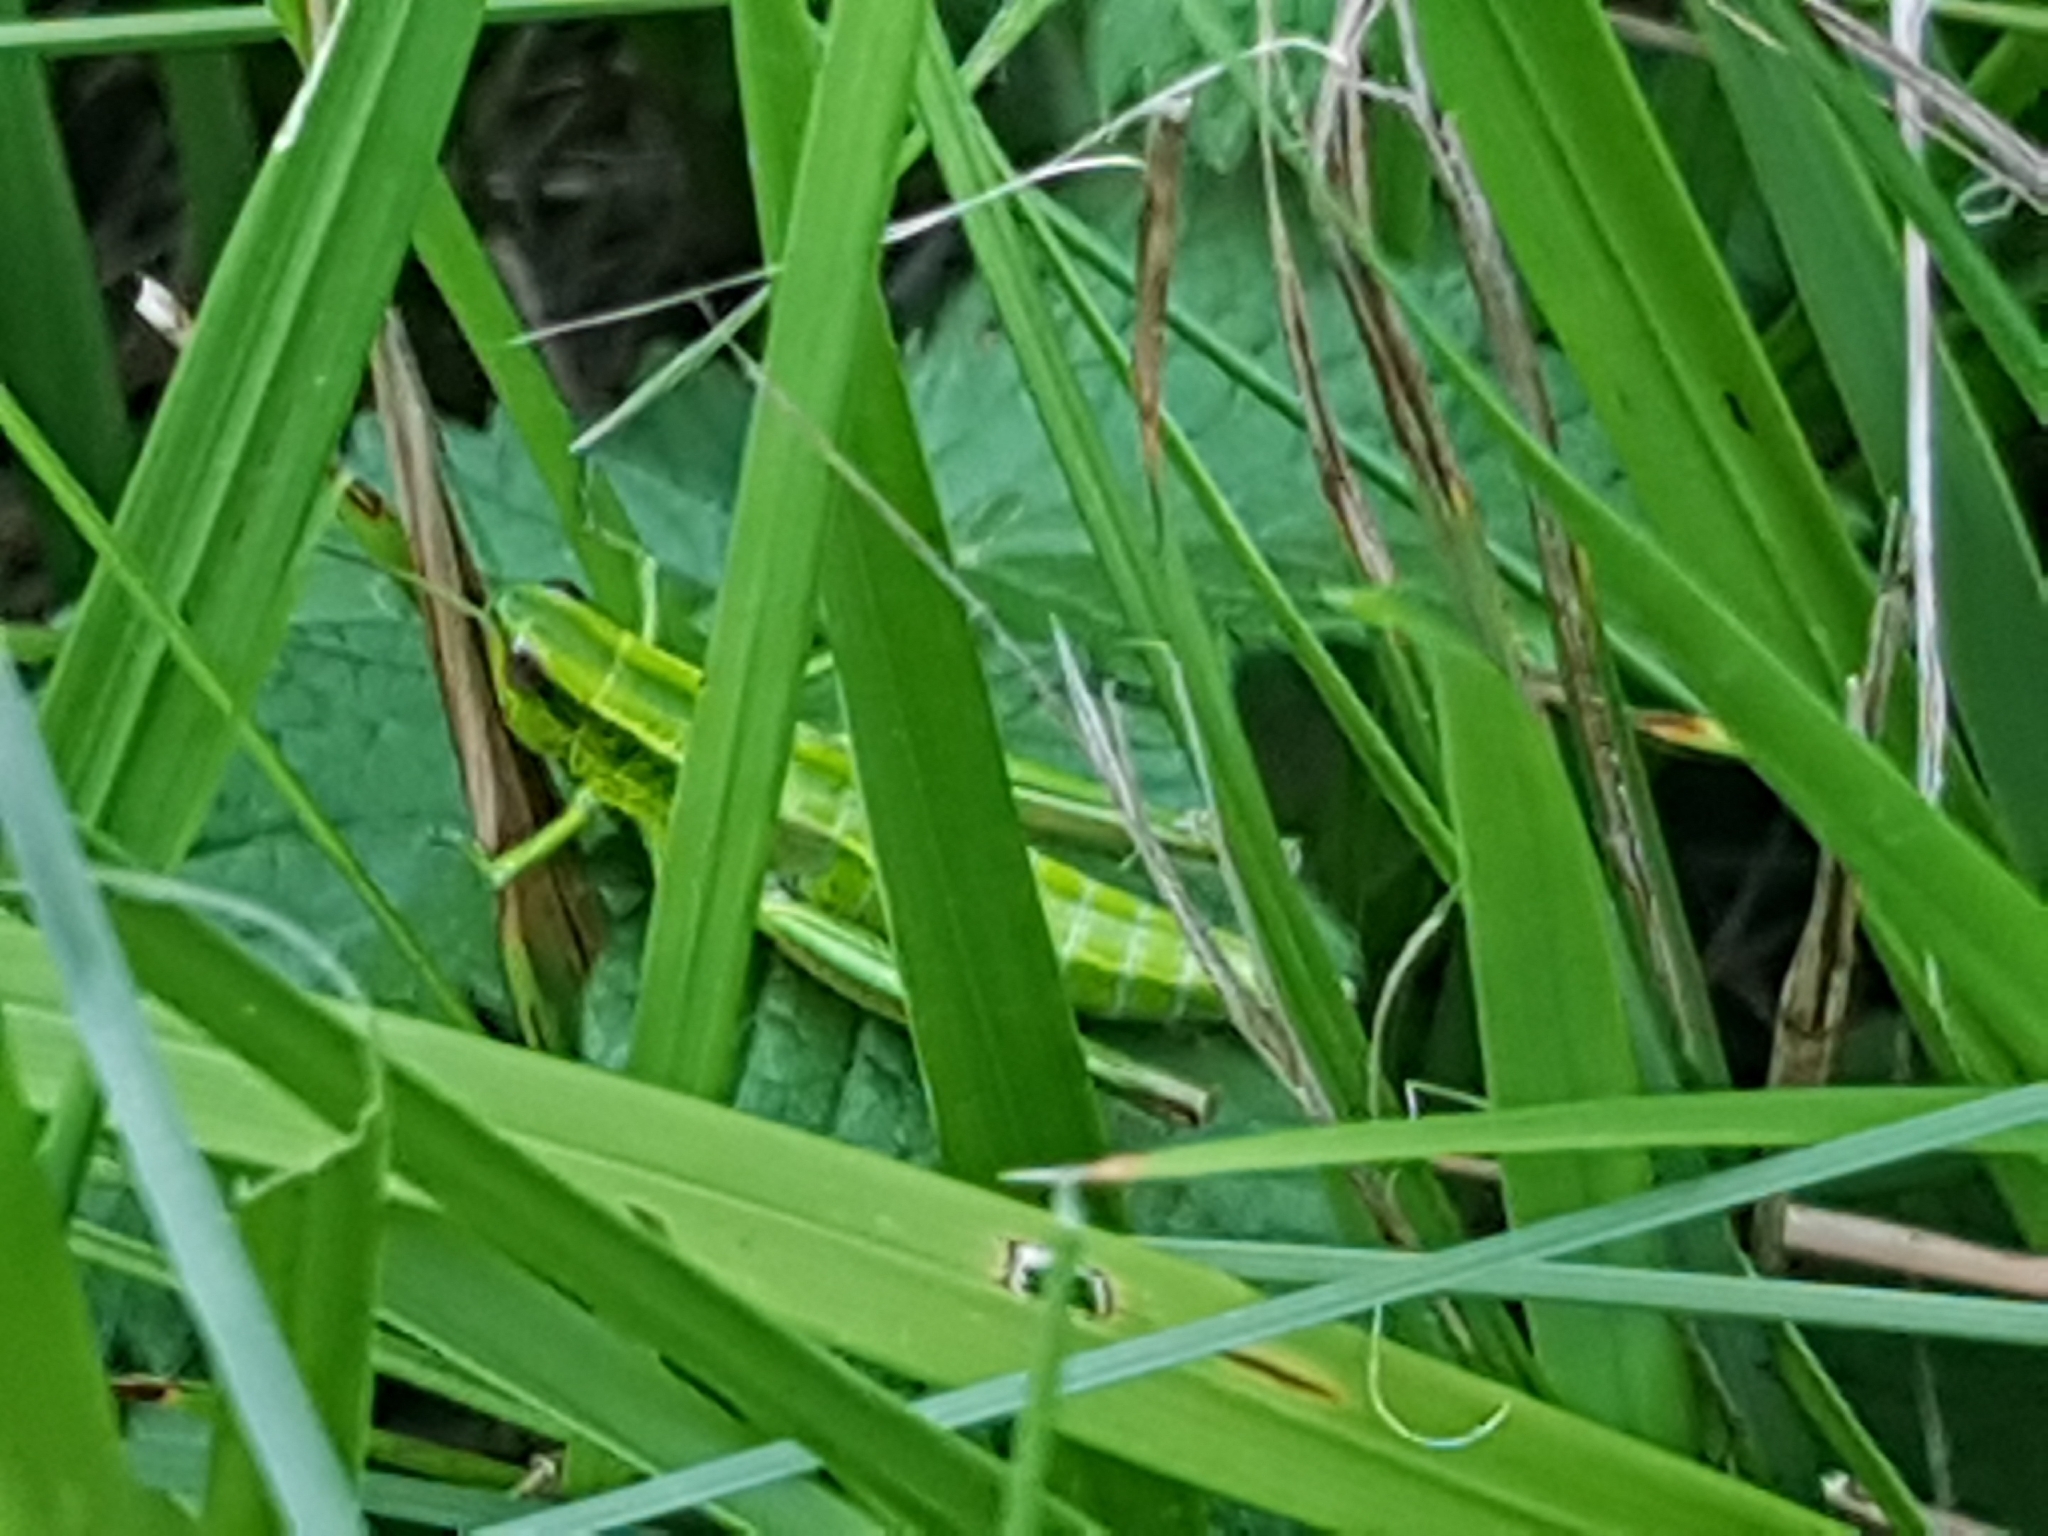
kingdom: Animalia
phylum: Arthropoda
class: Insecta
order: Orthoptera
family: Acrididae
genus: Euthystira
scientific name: Euthystira brachyptera
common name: Small gold grasshopper
